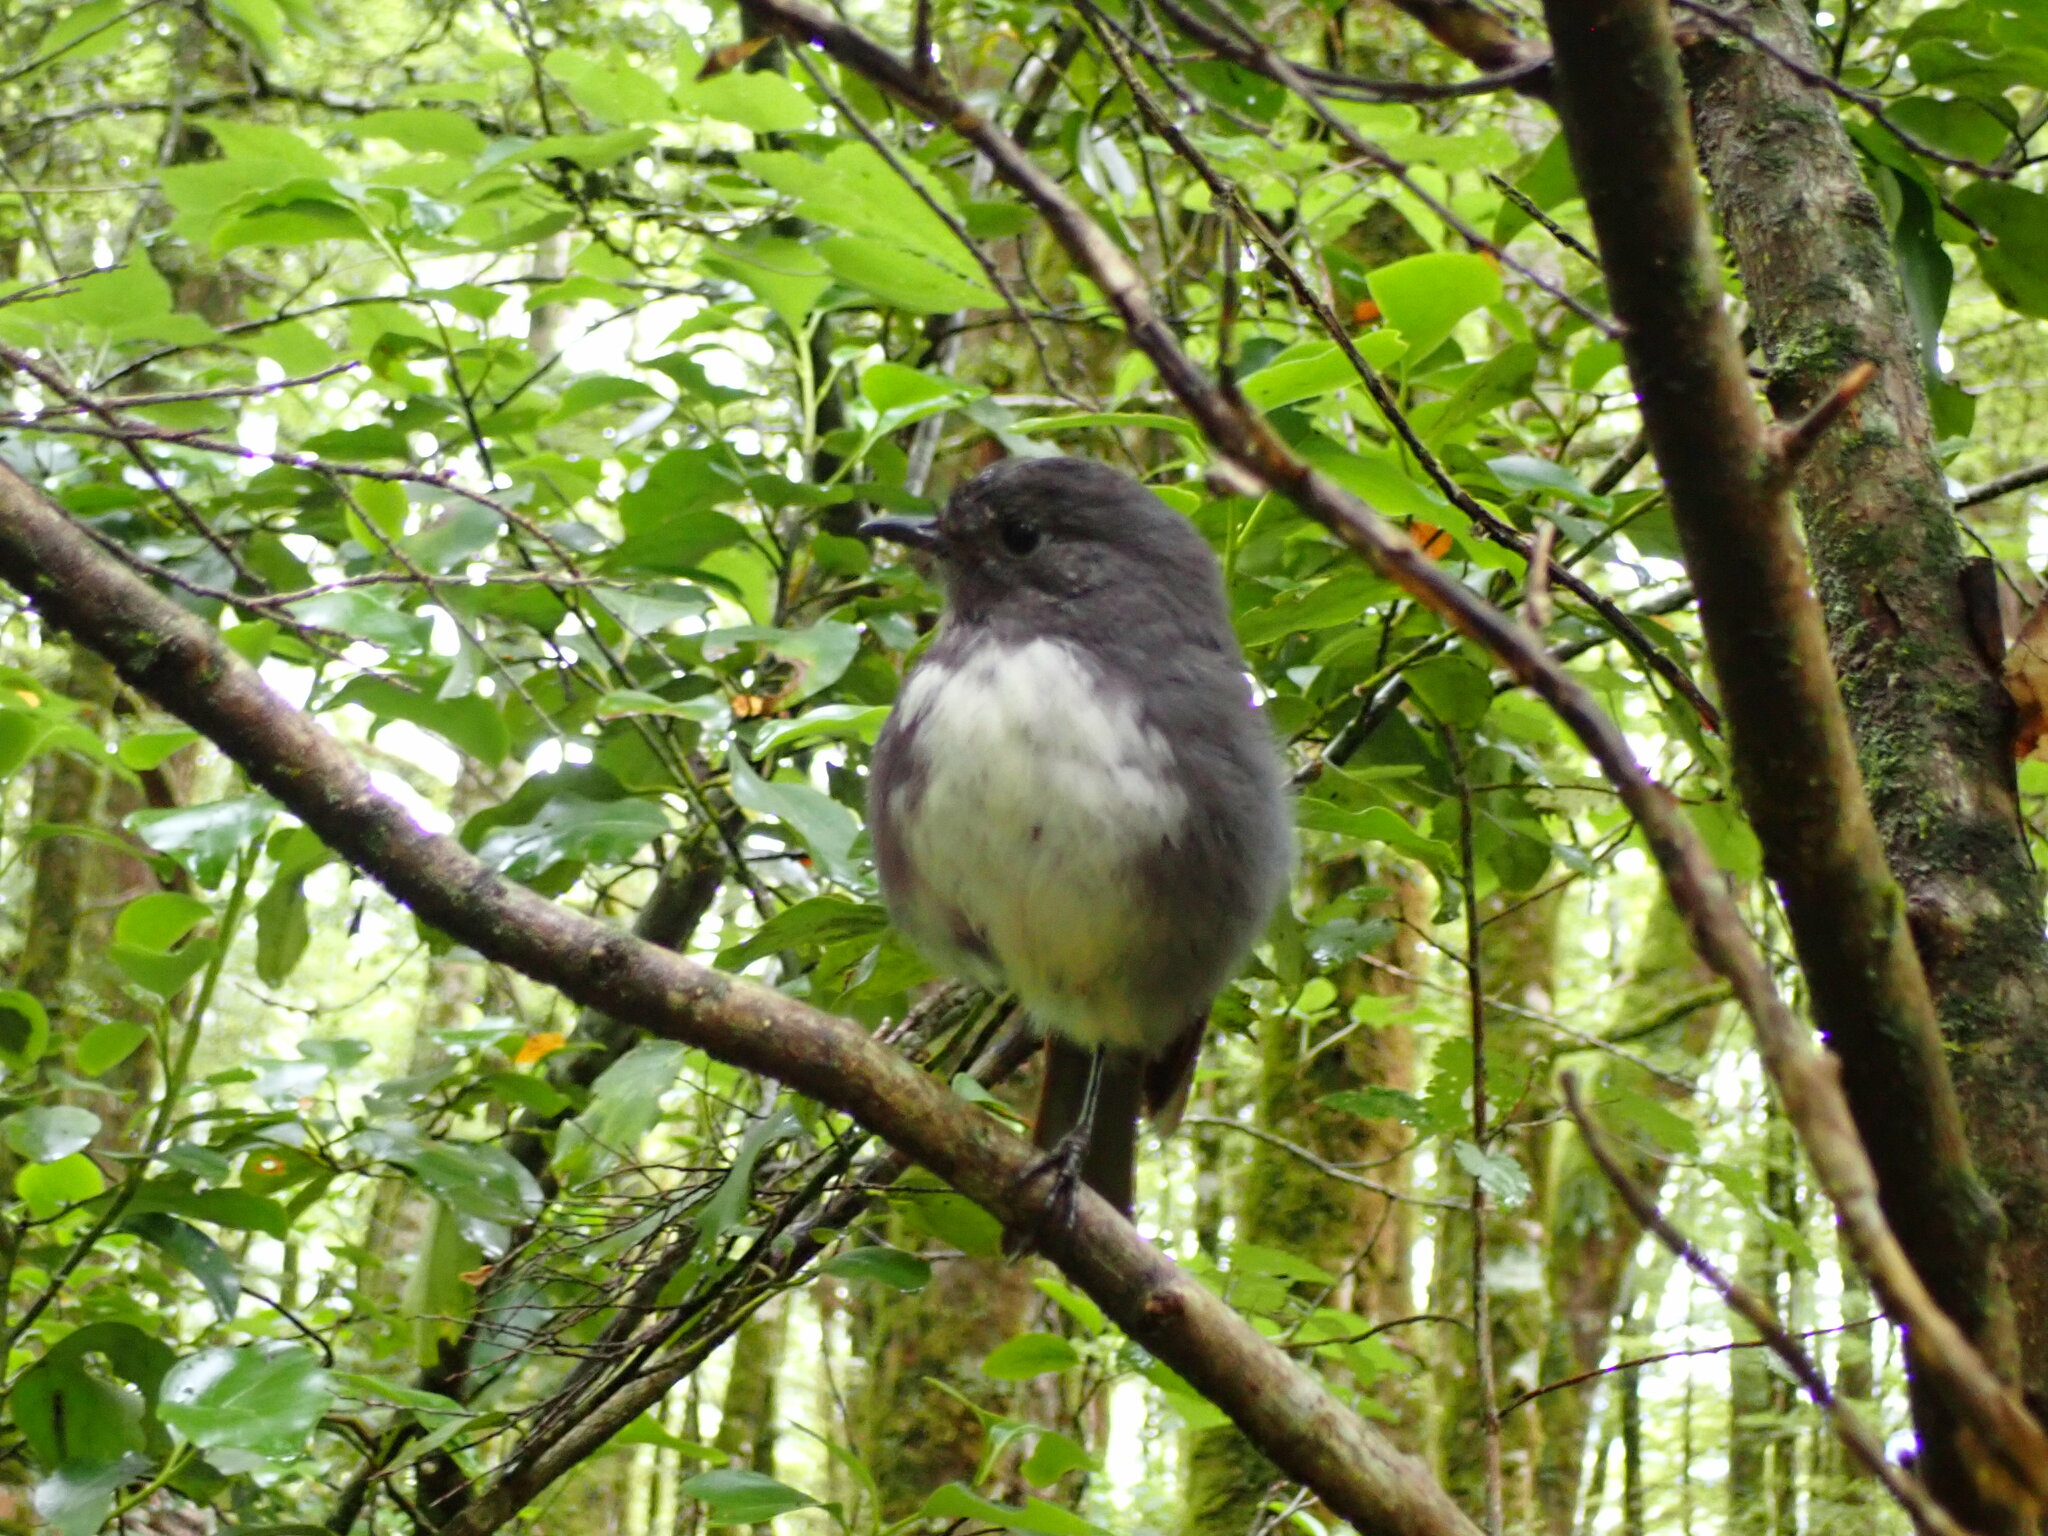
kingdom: Animalia
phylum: Chordata
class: Aves
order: Passeriformes
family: Petroicidae
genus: Petroica
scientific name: Petroica australis
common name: New zealand robin
